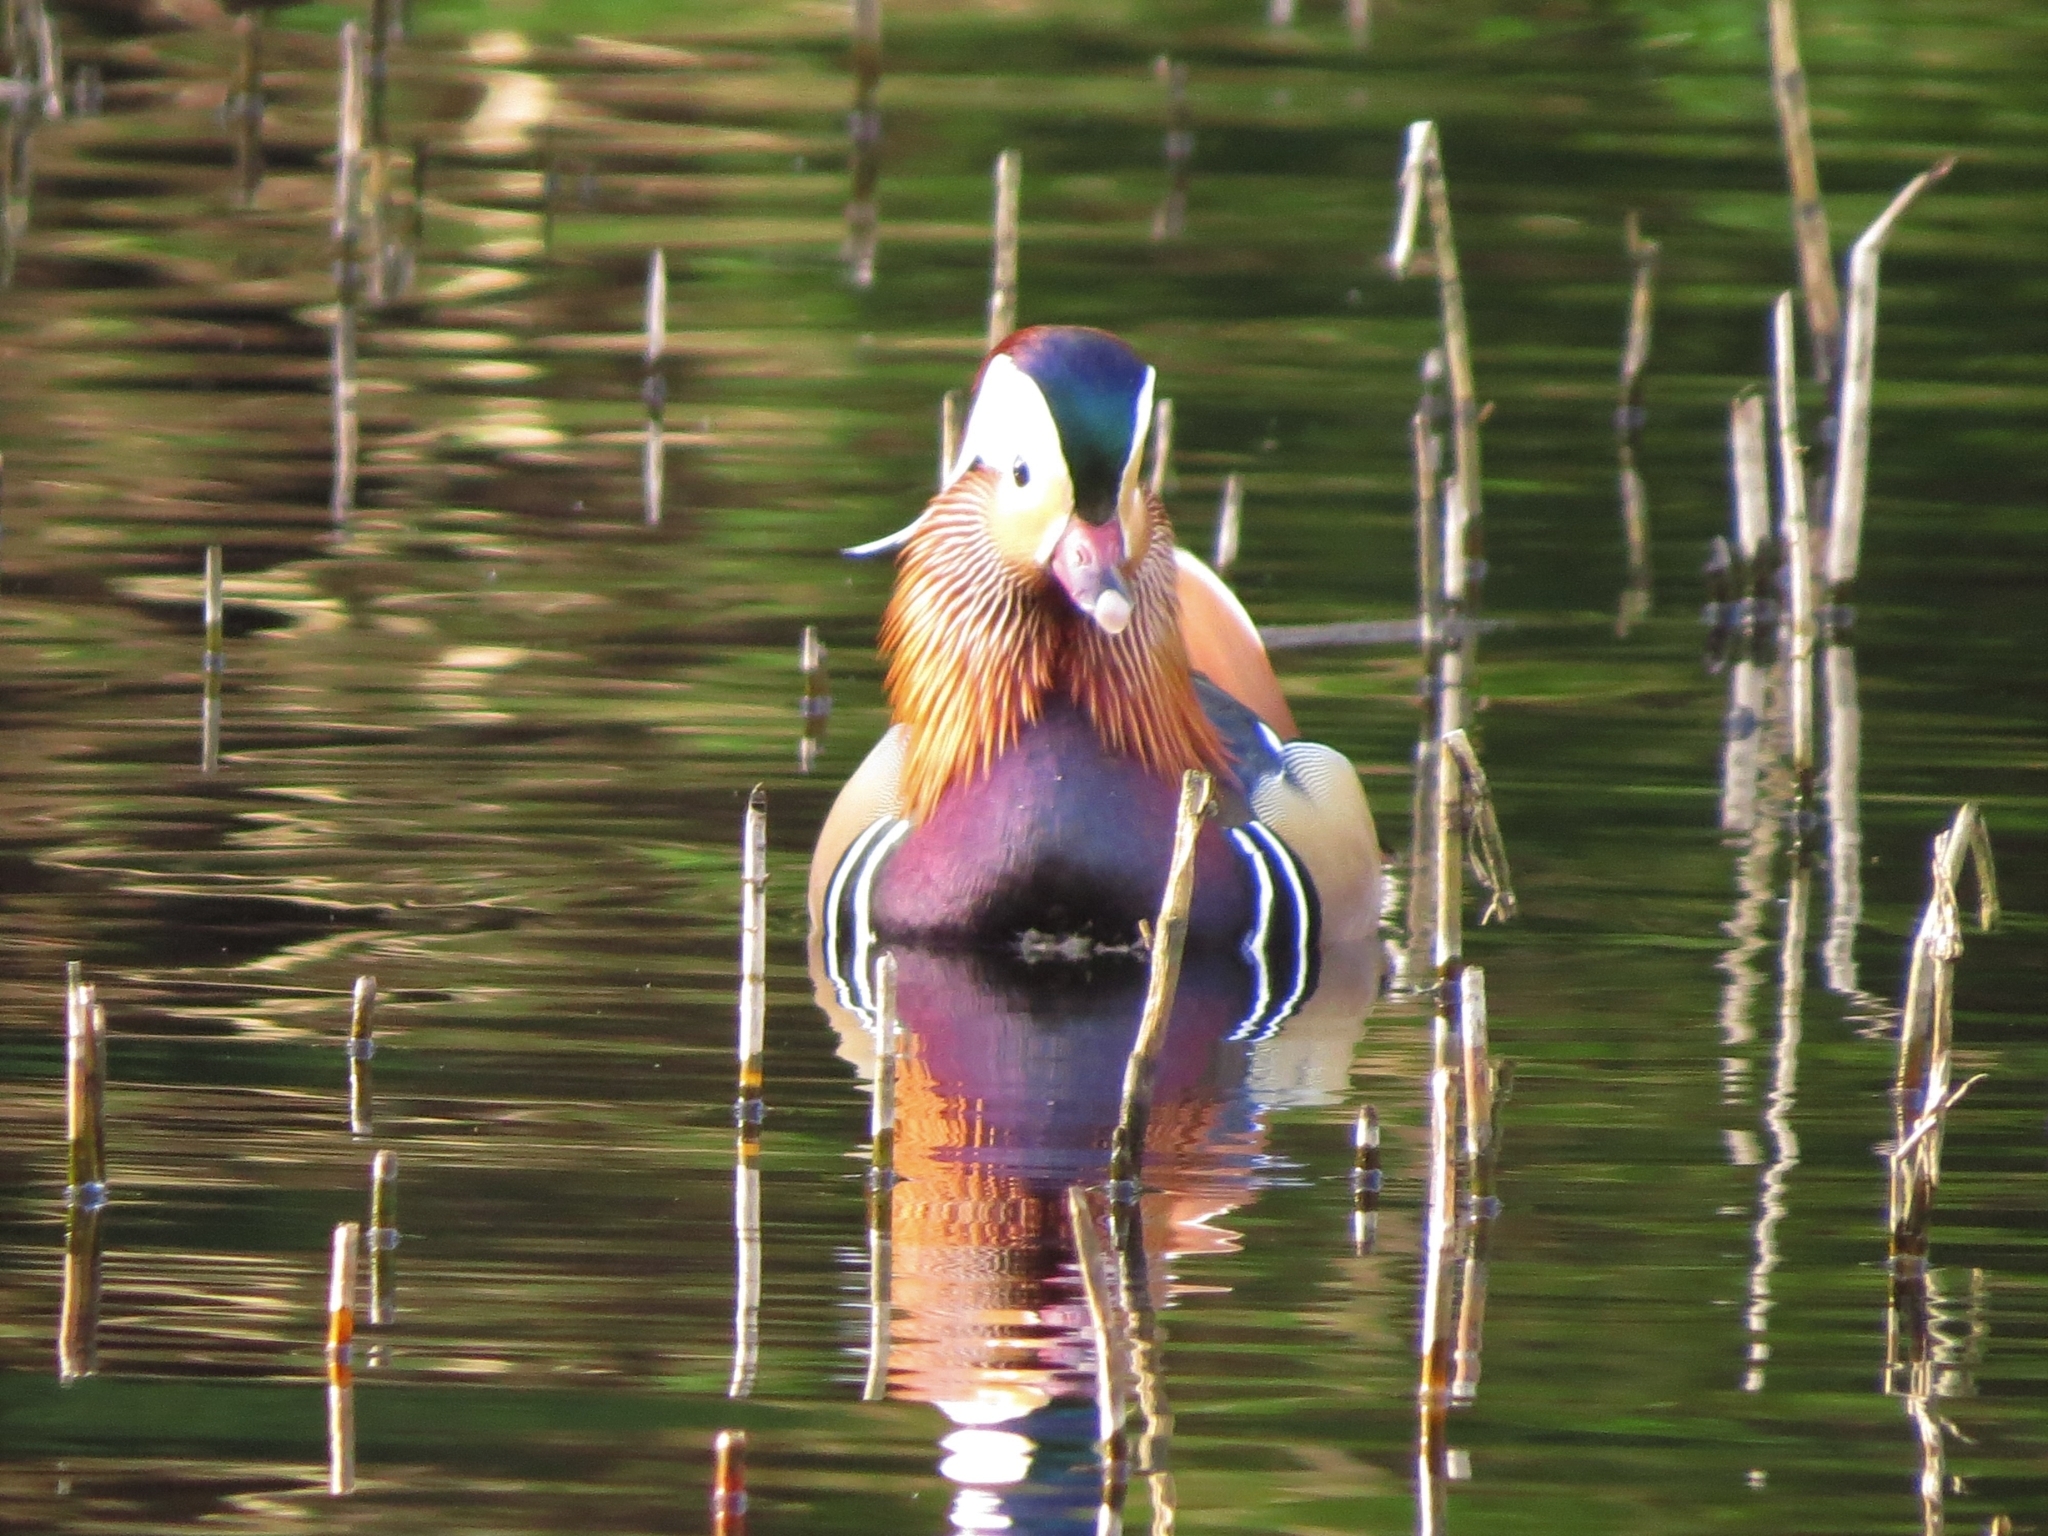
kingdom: Animalia
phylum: Chordata
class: Aves
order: Anseriformes
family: Anatidae
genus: Aix
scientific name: Aix galericulata
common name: Mandarin duck
